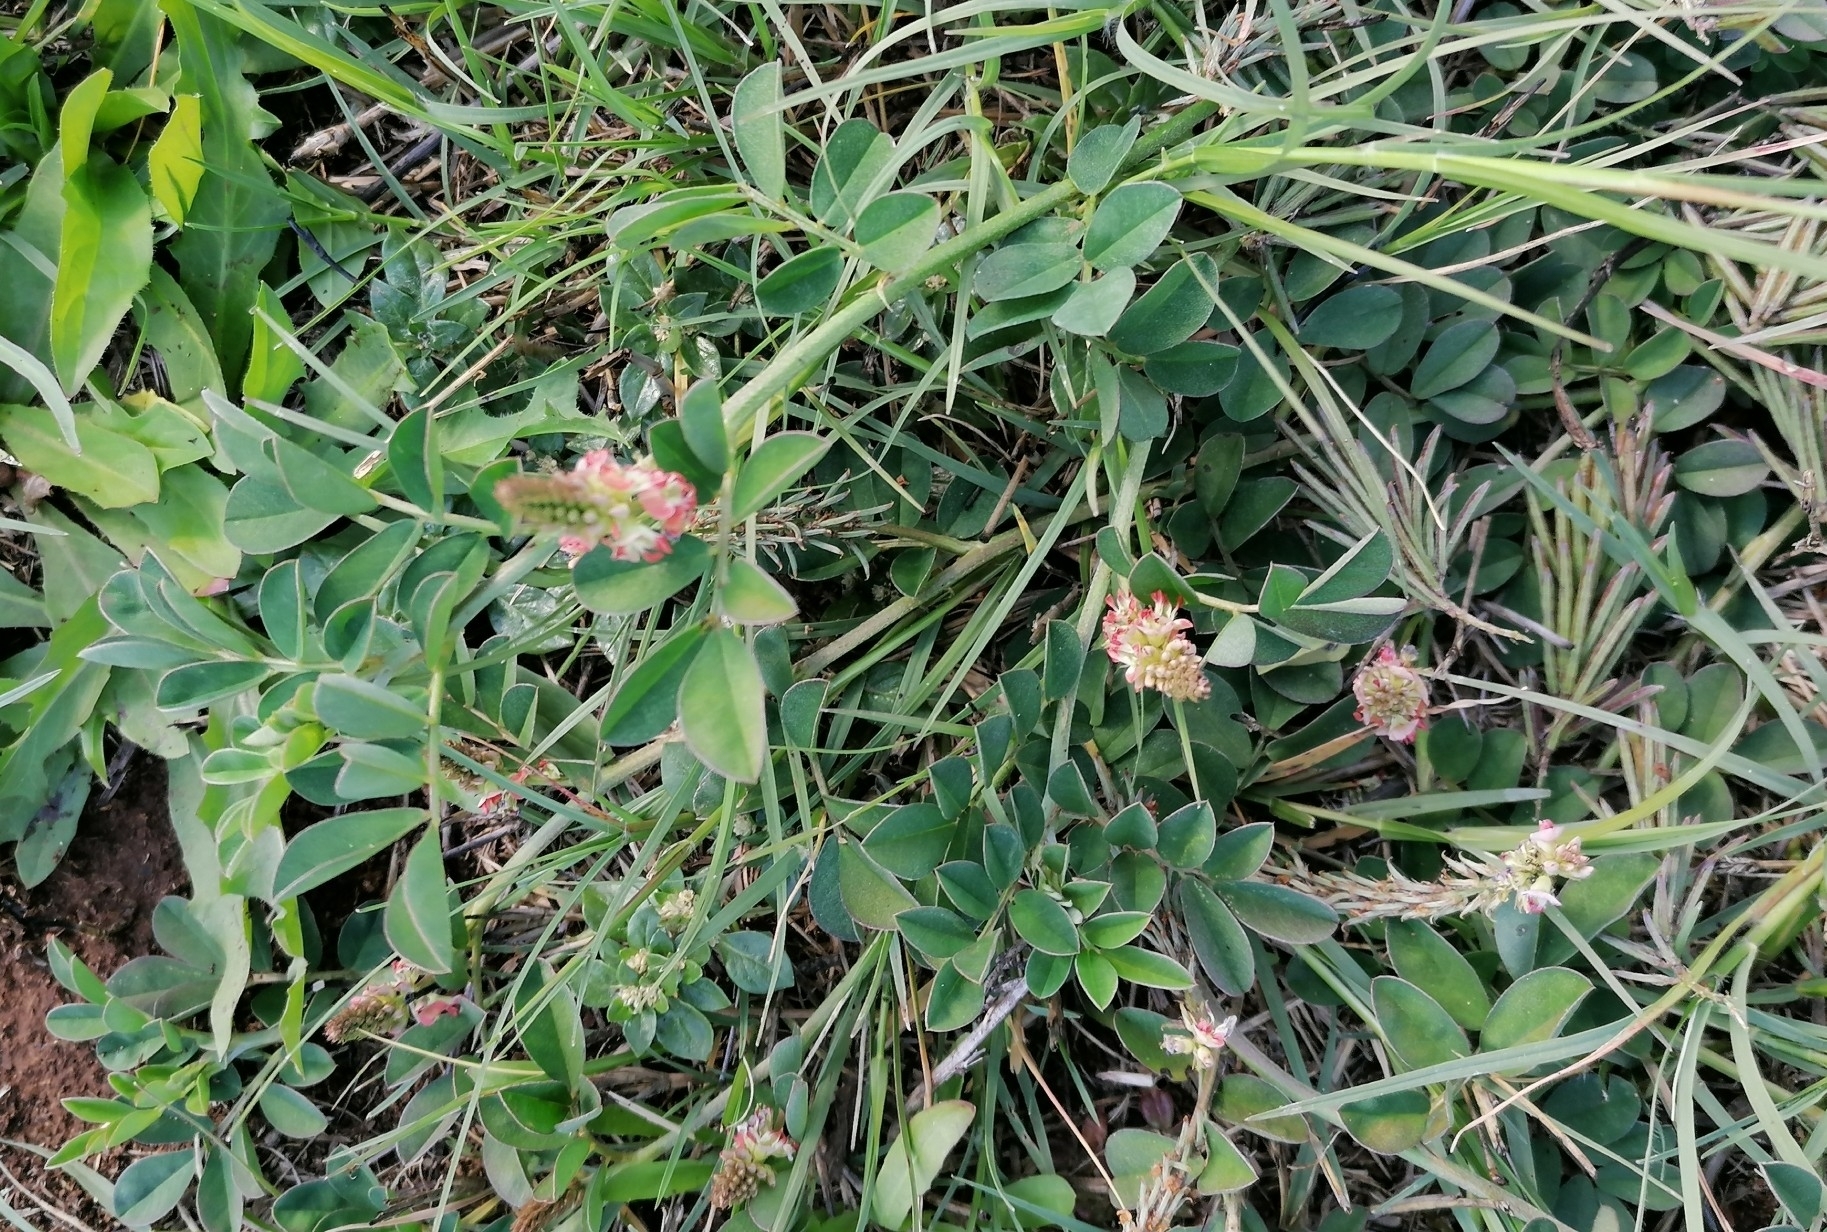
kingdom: Plantae
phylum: Tracheophyta
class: Magnoliopsida
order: Fabales
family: Fabaceae
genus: Indigofera
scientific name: Indigofera spicata
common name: Creeping indigo
